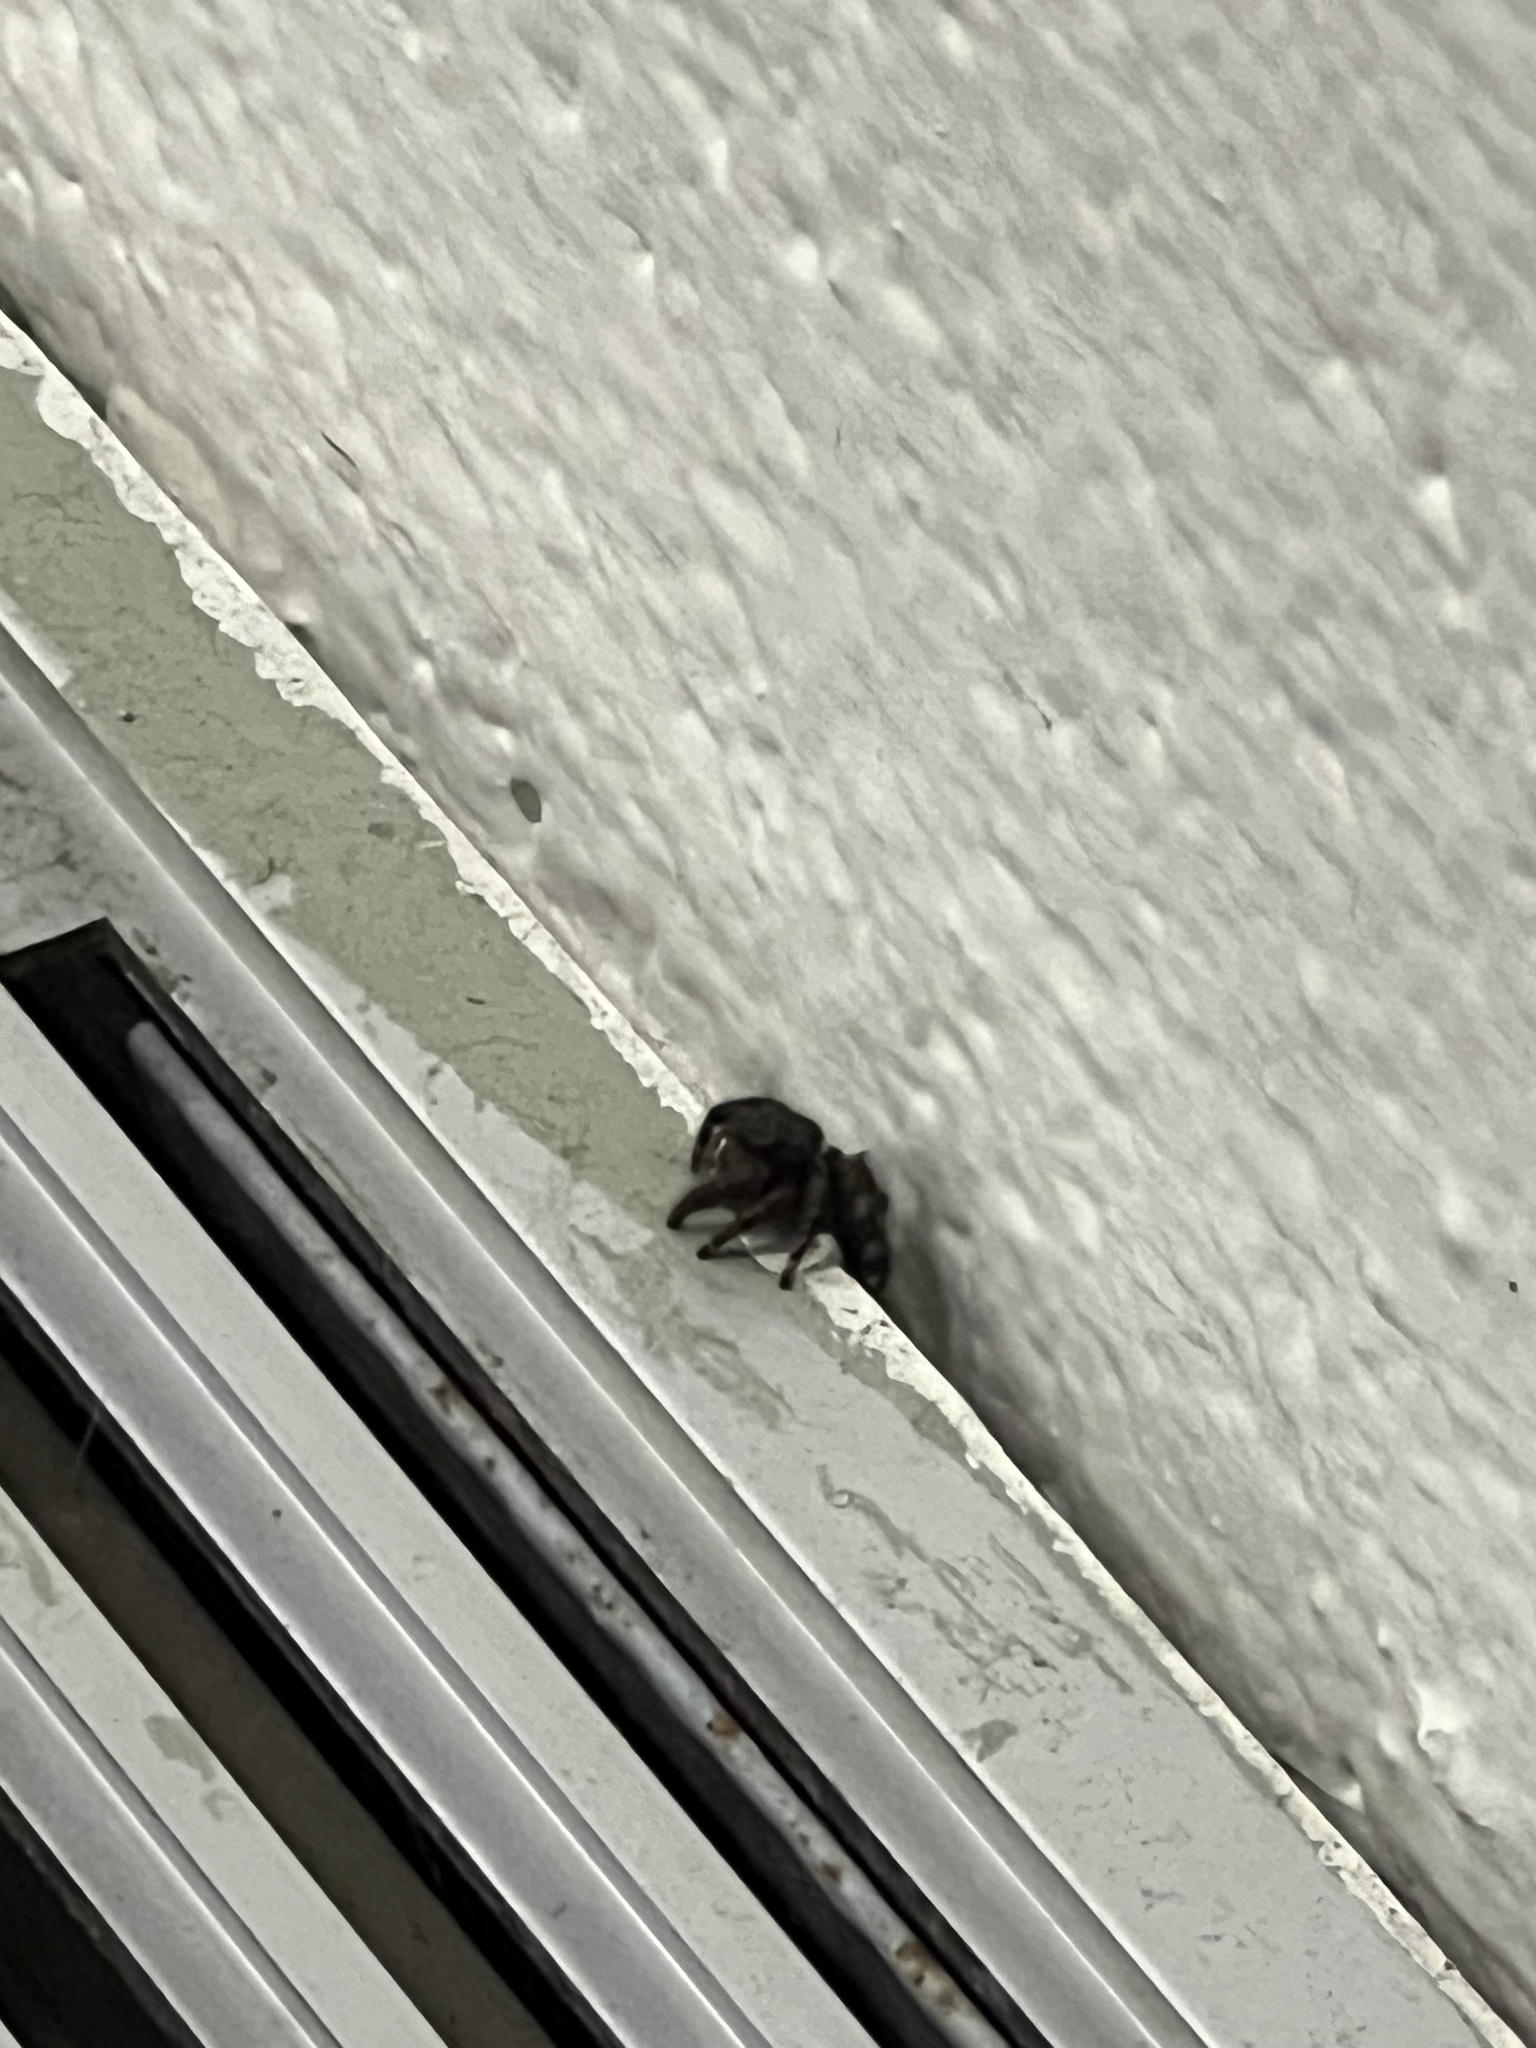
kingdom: Animalia
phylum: Arthropoda
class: Arachnida
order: Araneae
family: Salticidae
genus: Phidippus
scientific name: Phidippus audax
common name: Bold jumper
